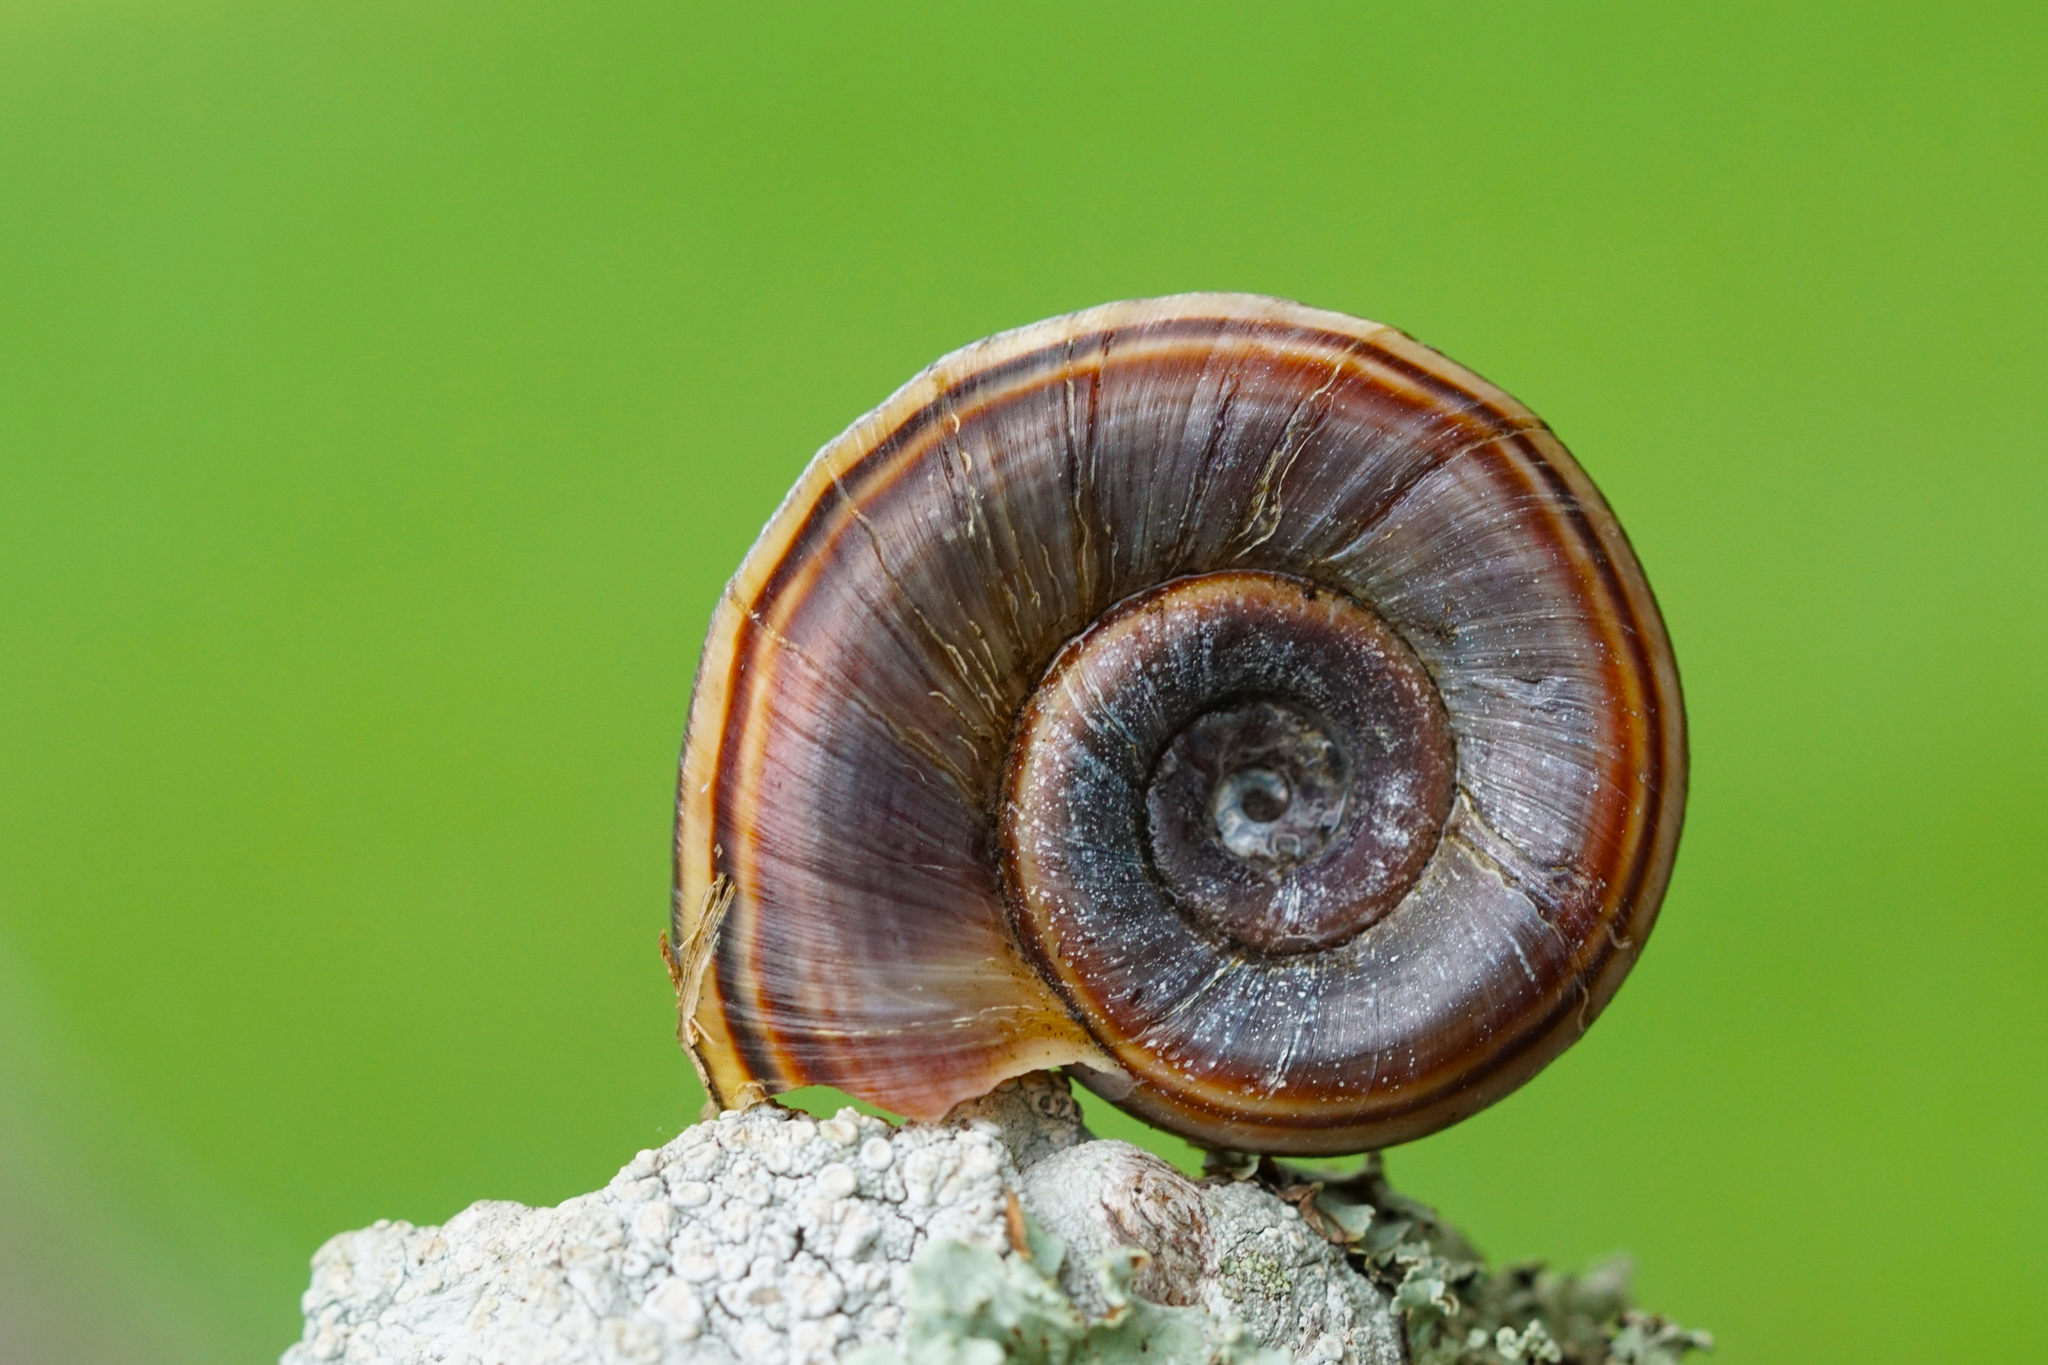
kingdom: Animalia
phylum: Mollusca
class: Gastropoda
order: Architaenioglossa
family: Ampullariidae
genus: Marisa
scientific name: Marisa cornuarietis
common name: Giant ramshorn snail
